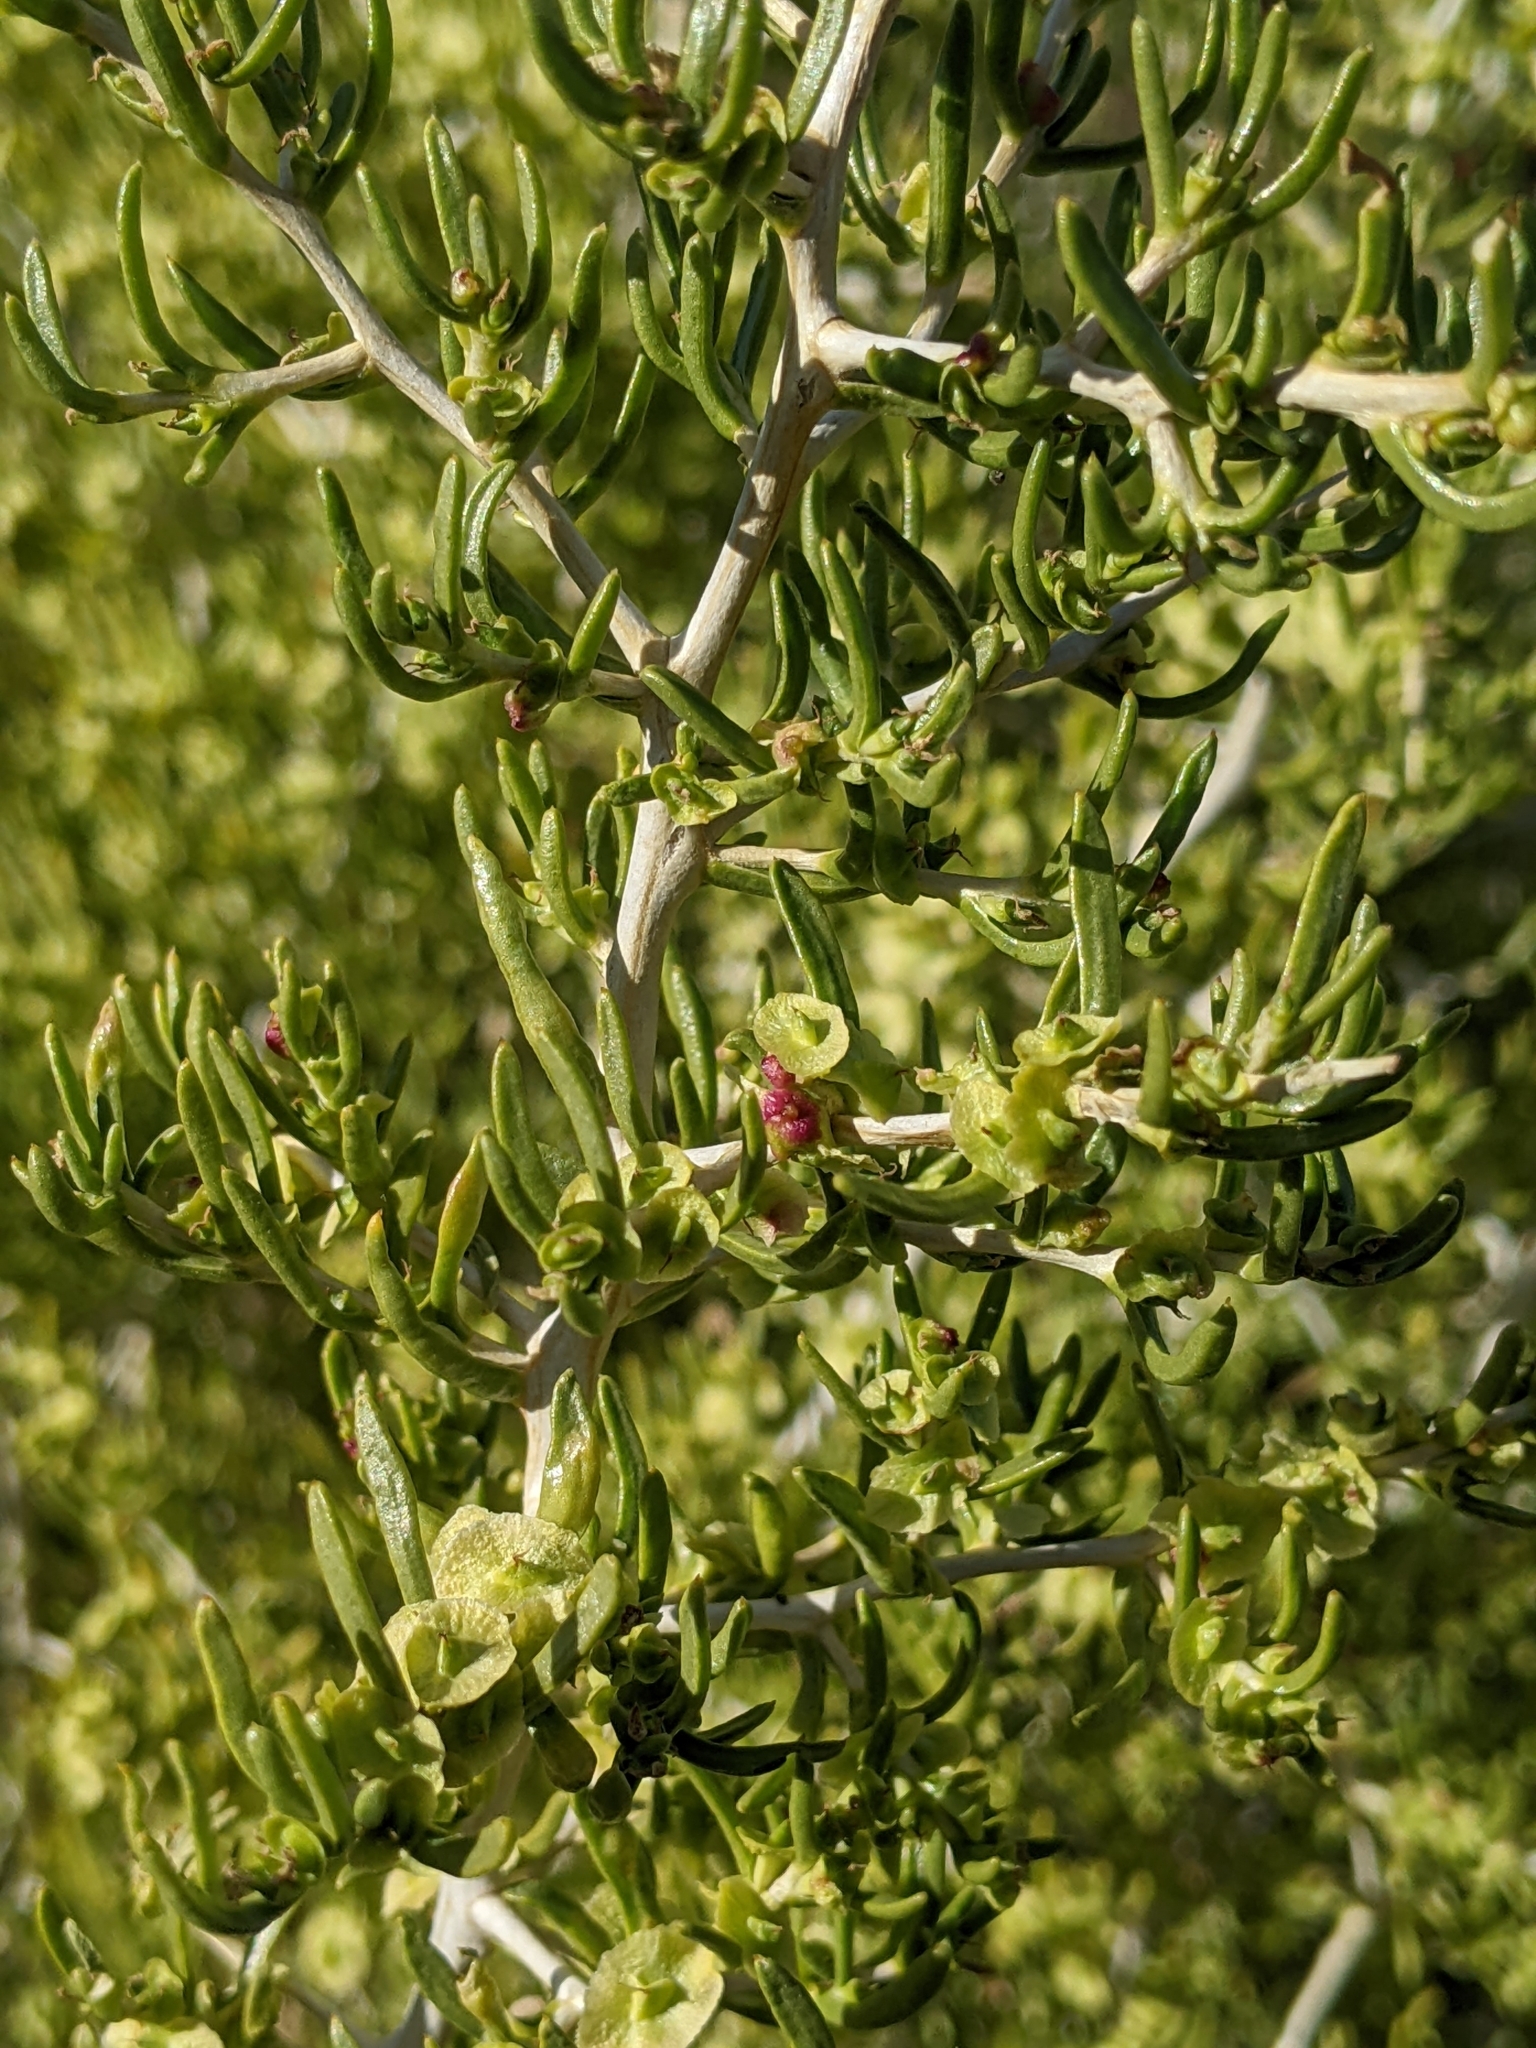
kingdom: Plantae
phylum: Tracheophyta
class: Magnoliopsida
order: Caryophyllales
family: Sarcobataceae
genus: Sarcobatus
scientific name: Sarcobatus vermiculatus
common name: Greasewood
